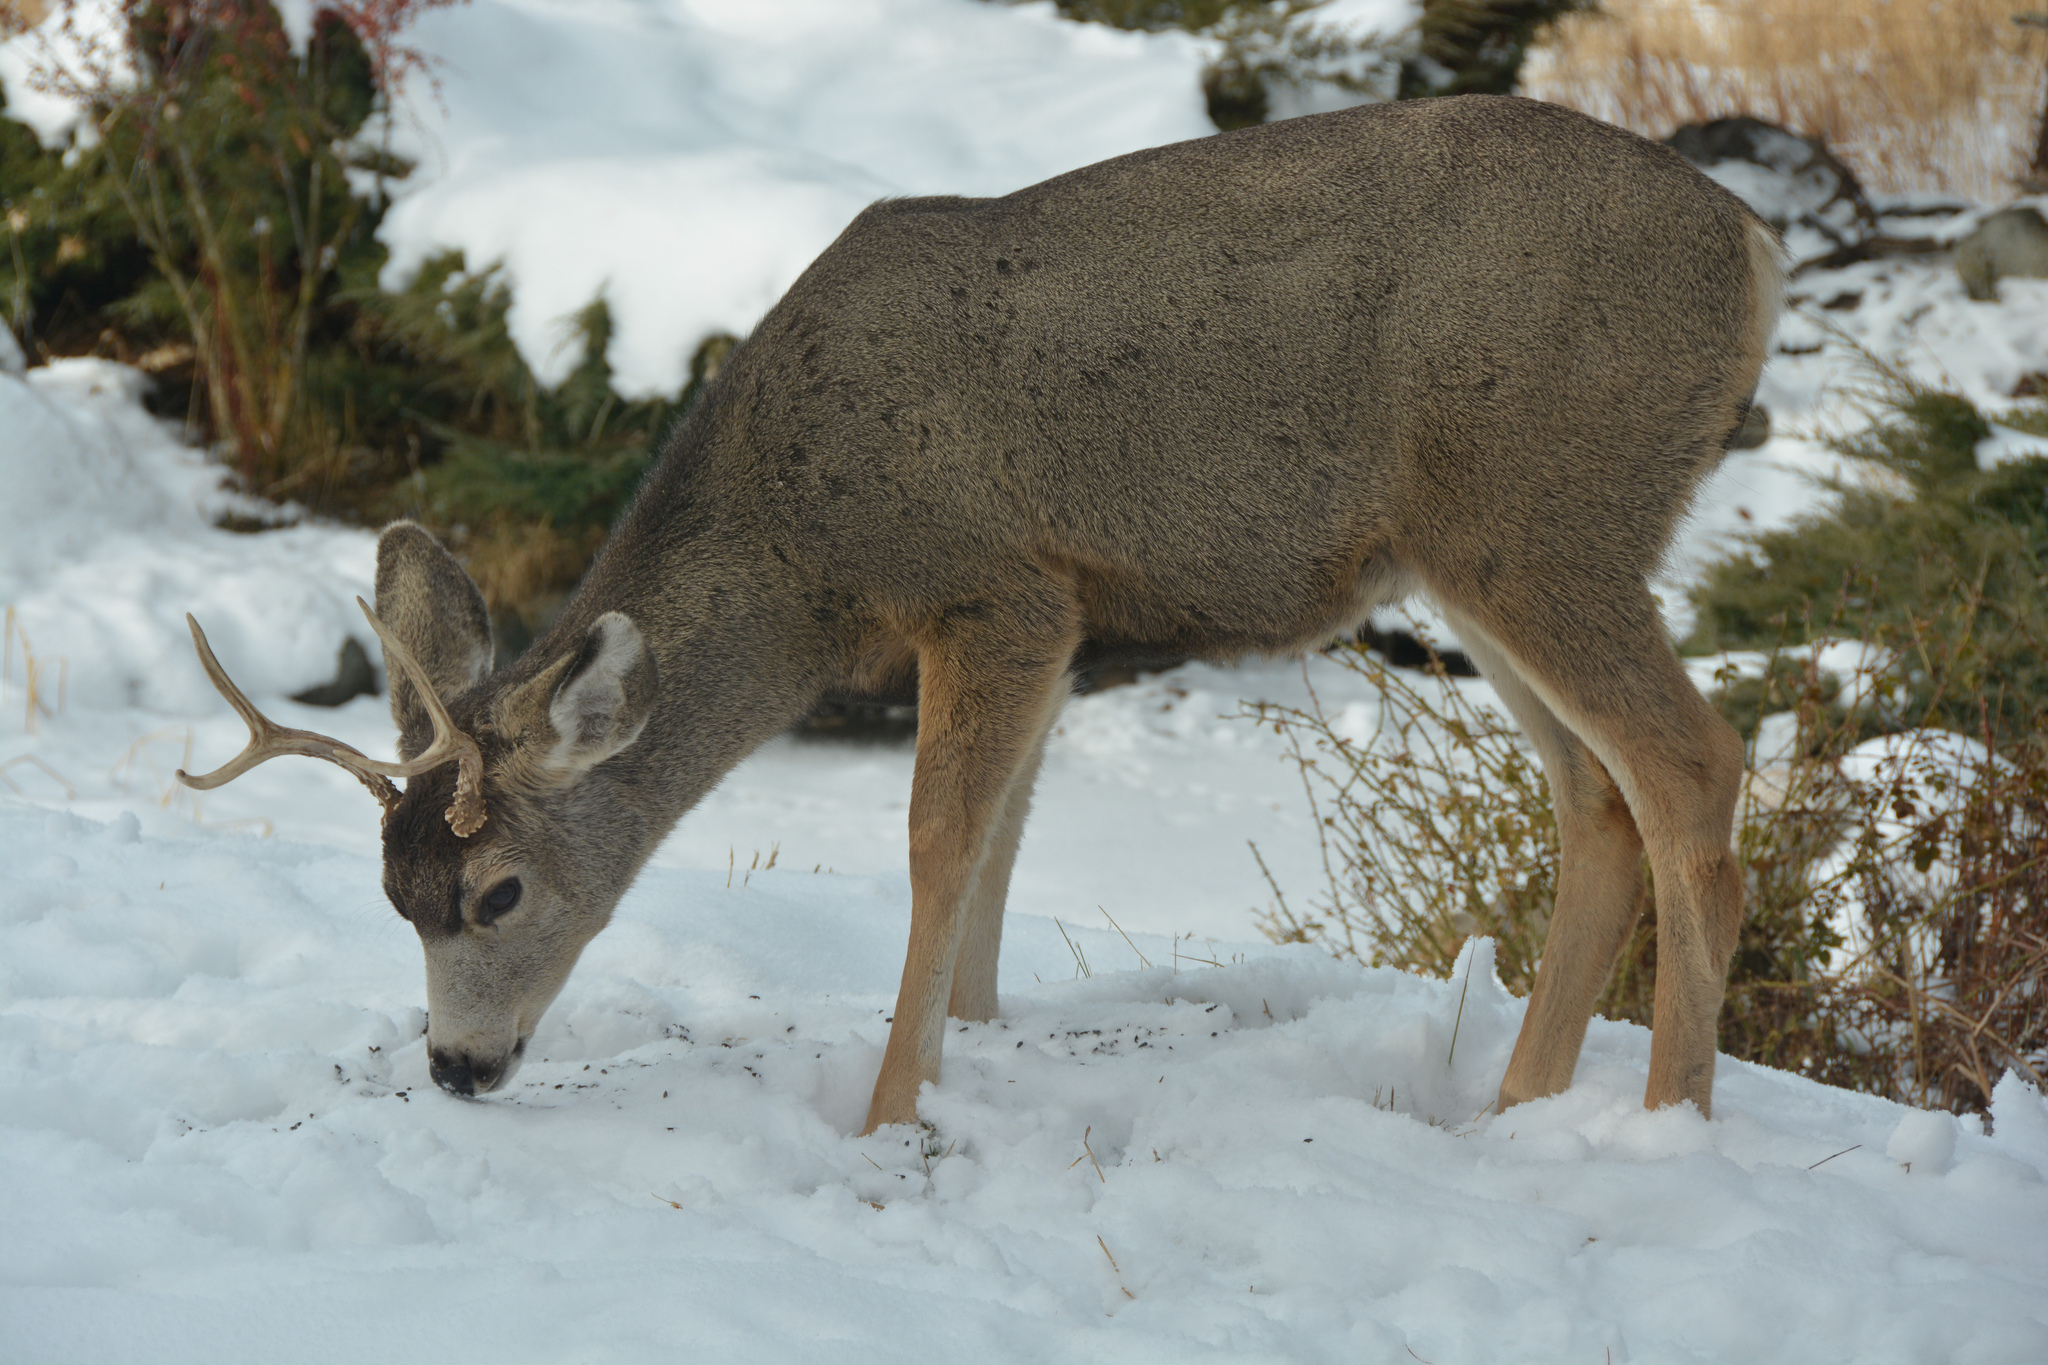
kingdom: Animalia
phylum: Chordata
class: Mammalia
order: Artiodactyla
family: Cervidae
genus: Odocoileus
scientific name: Odocoileus hemionus
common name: Mule deer
